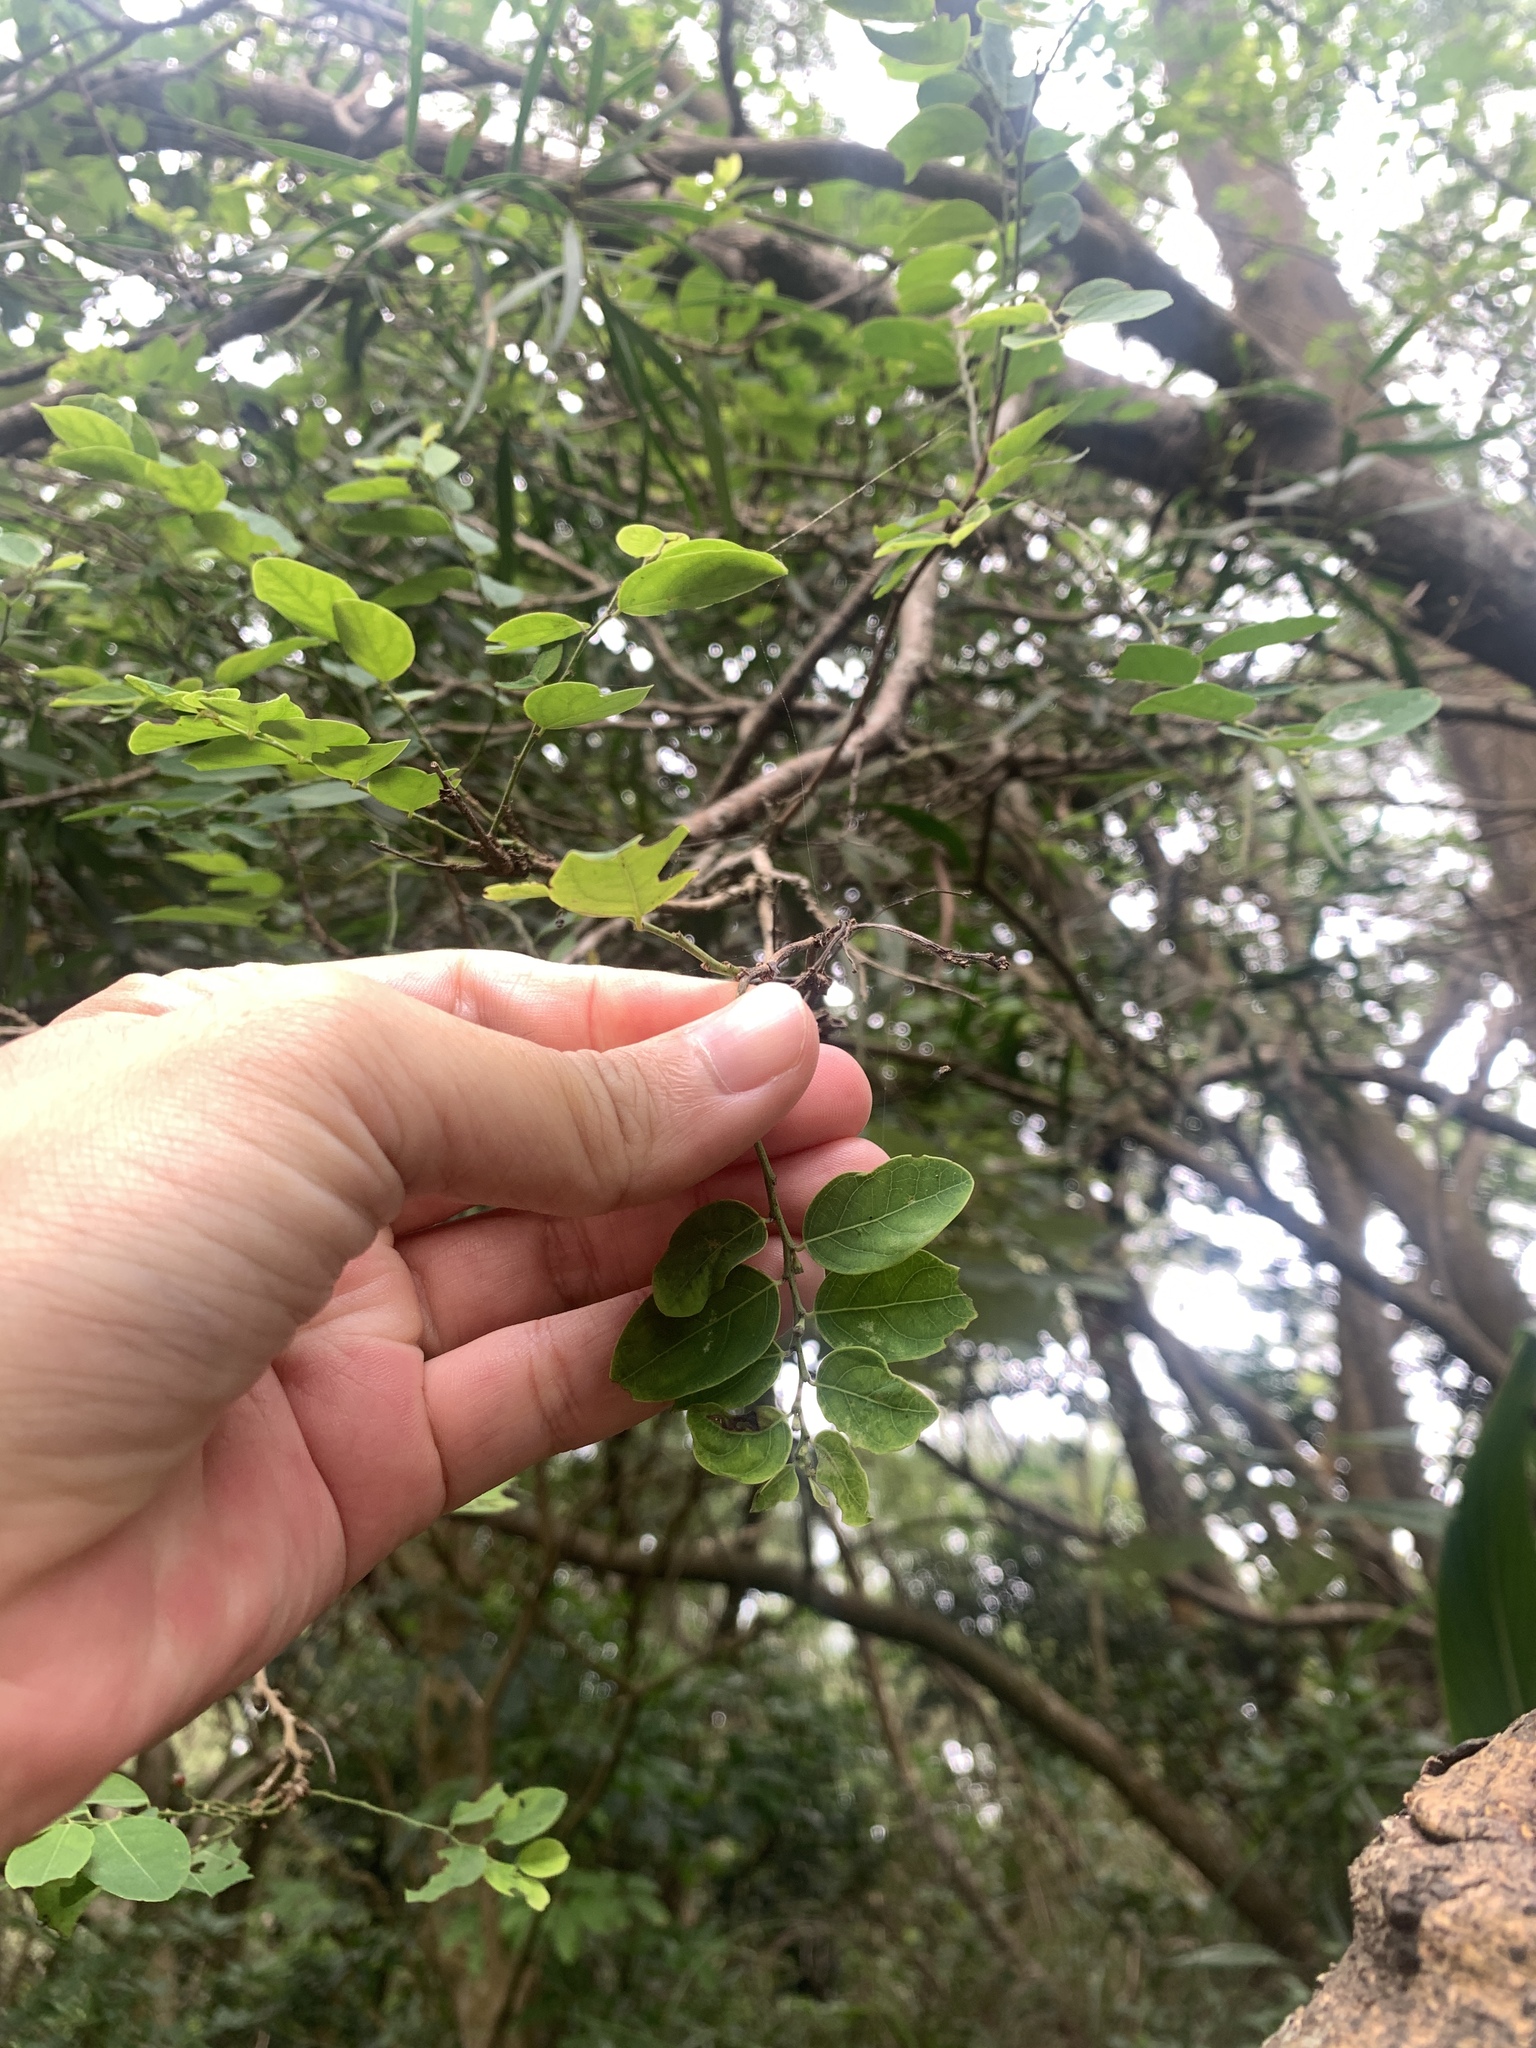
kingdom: Plantae
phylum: Tracheophyta
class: Magnoliopsida
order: Malpighiales
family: Phyllanthaceae
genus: Breynia
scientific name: Breynia vitis-idaea
